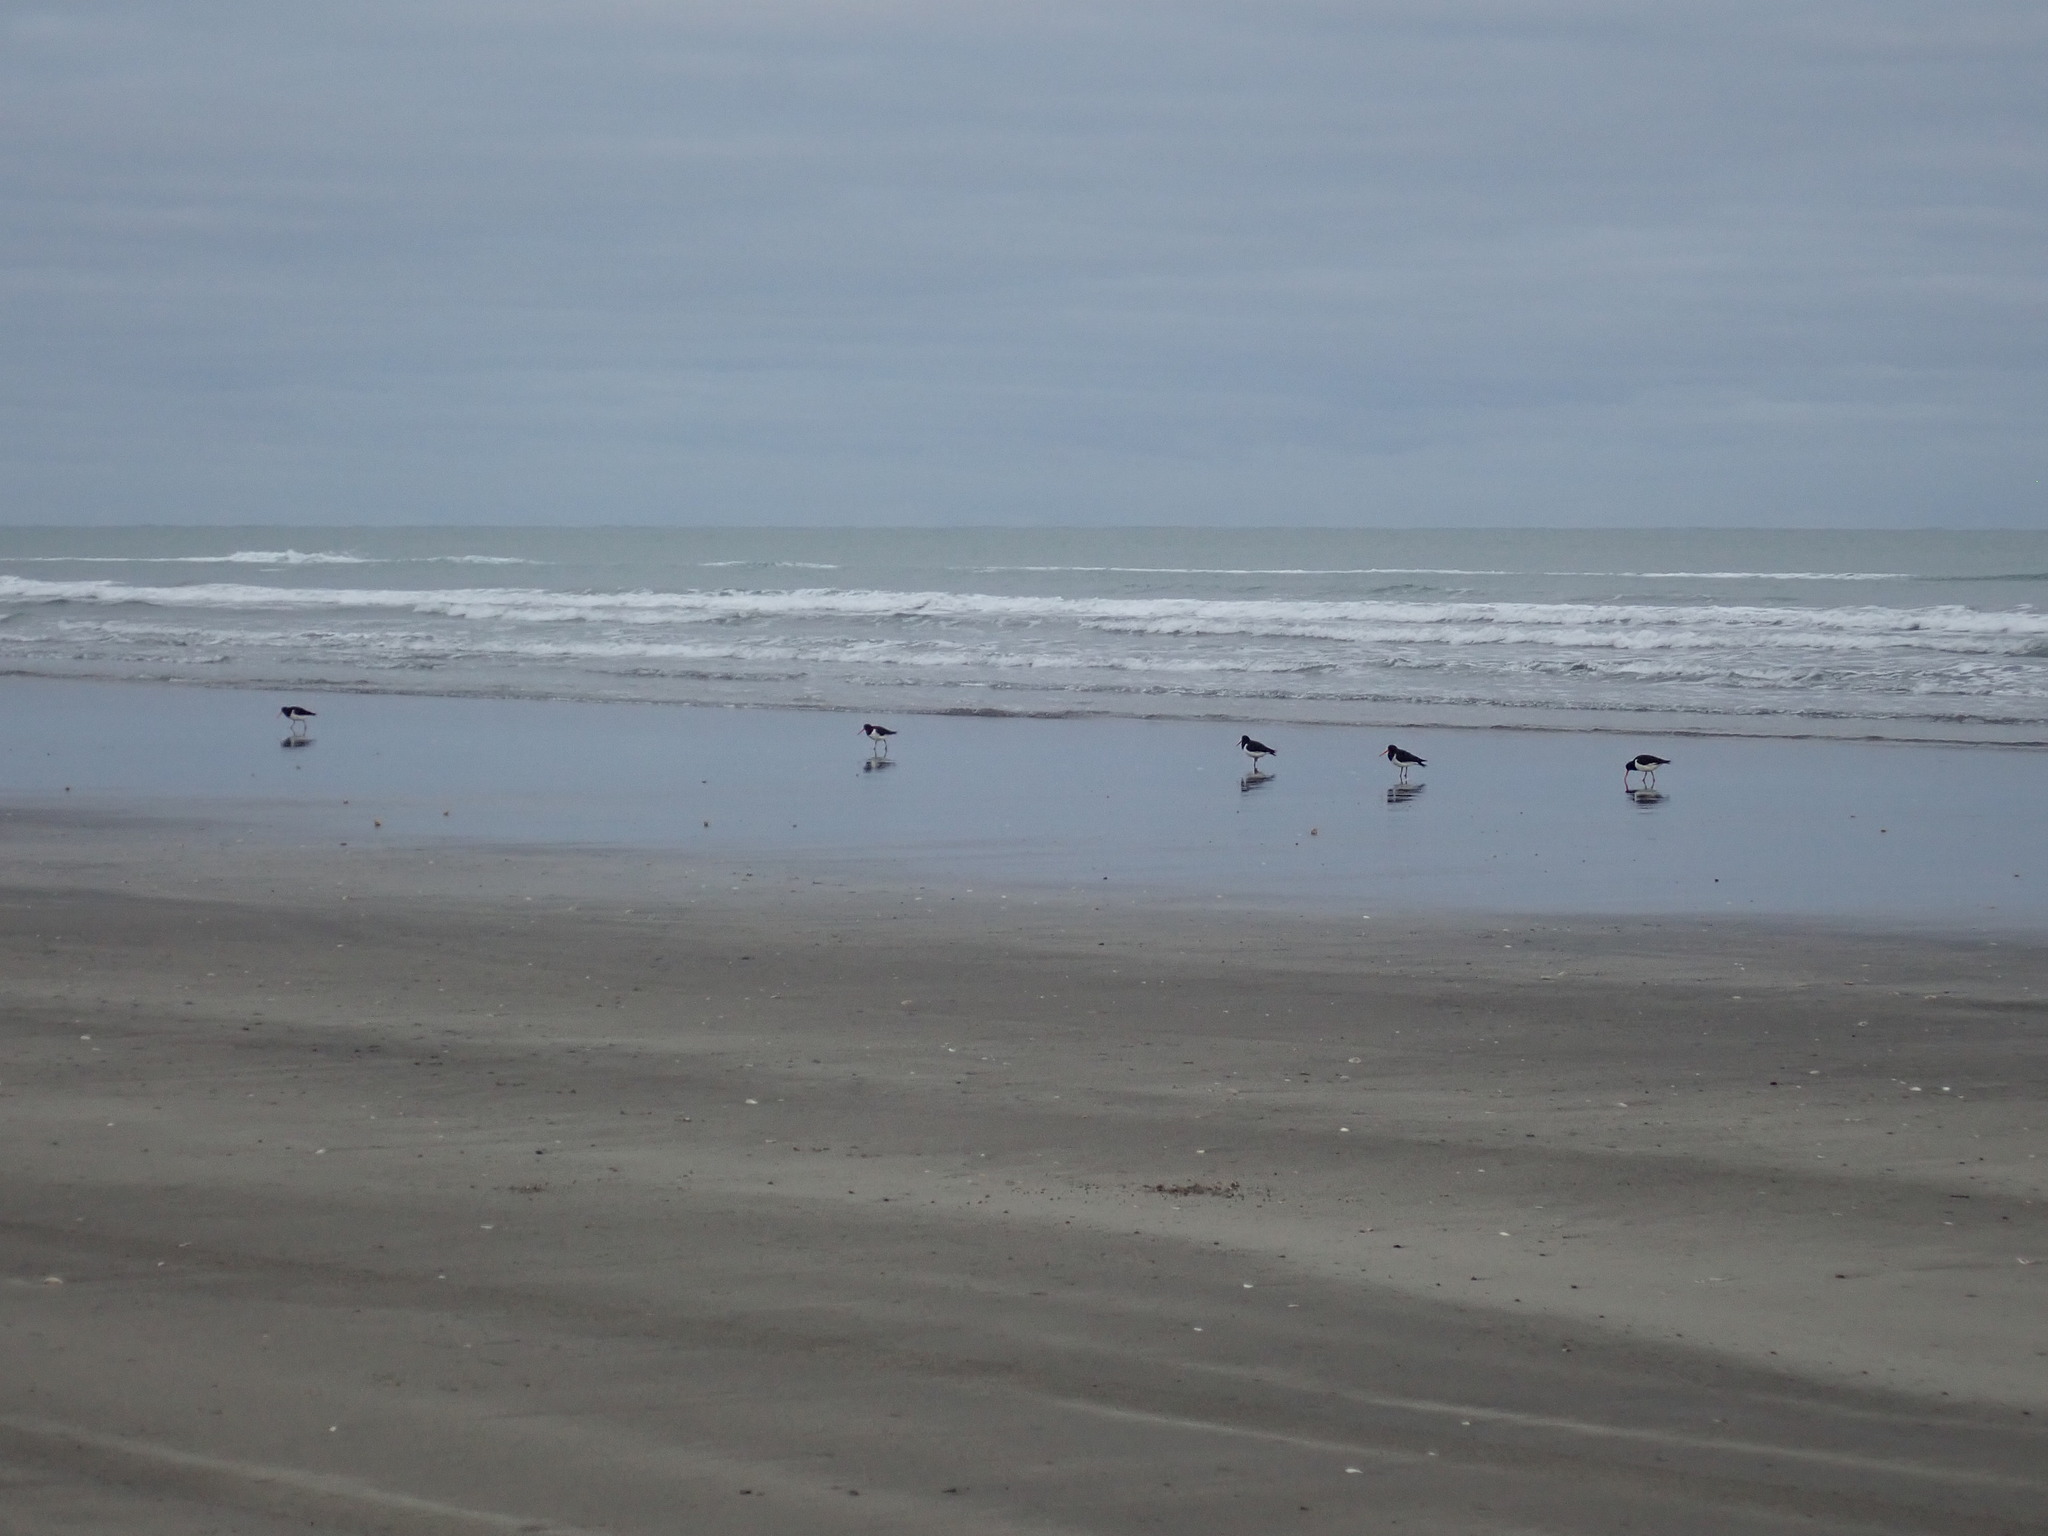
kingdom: Animalia
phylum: Chordata
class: Aves
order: Charadriiformes
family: Haematopodidae
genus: Haematopus
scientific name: Haematopus finschi
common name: South island oystercatcher
